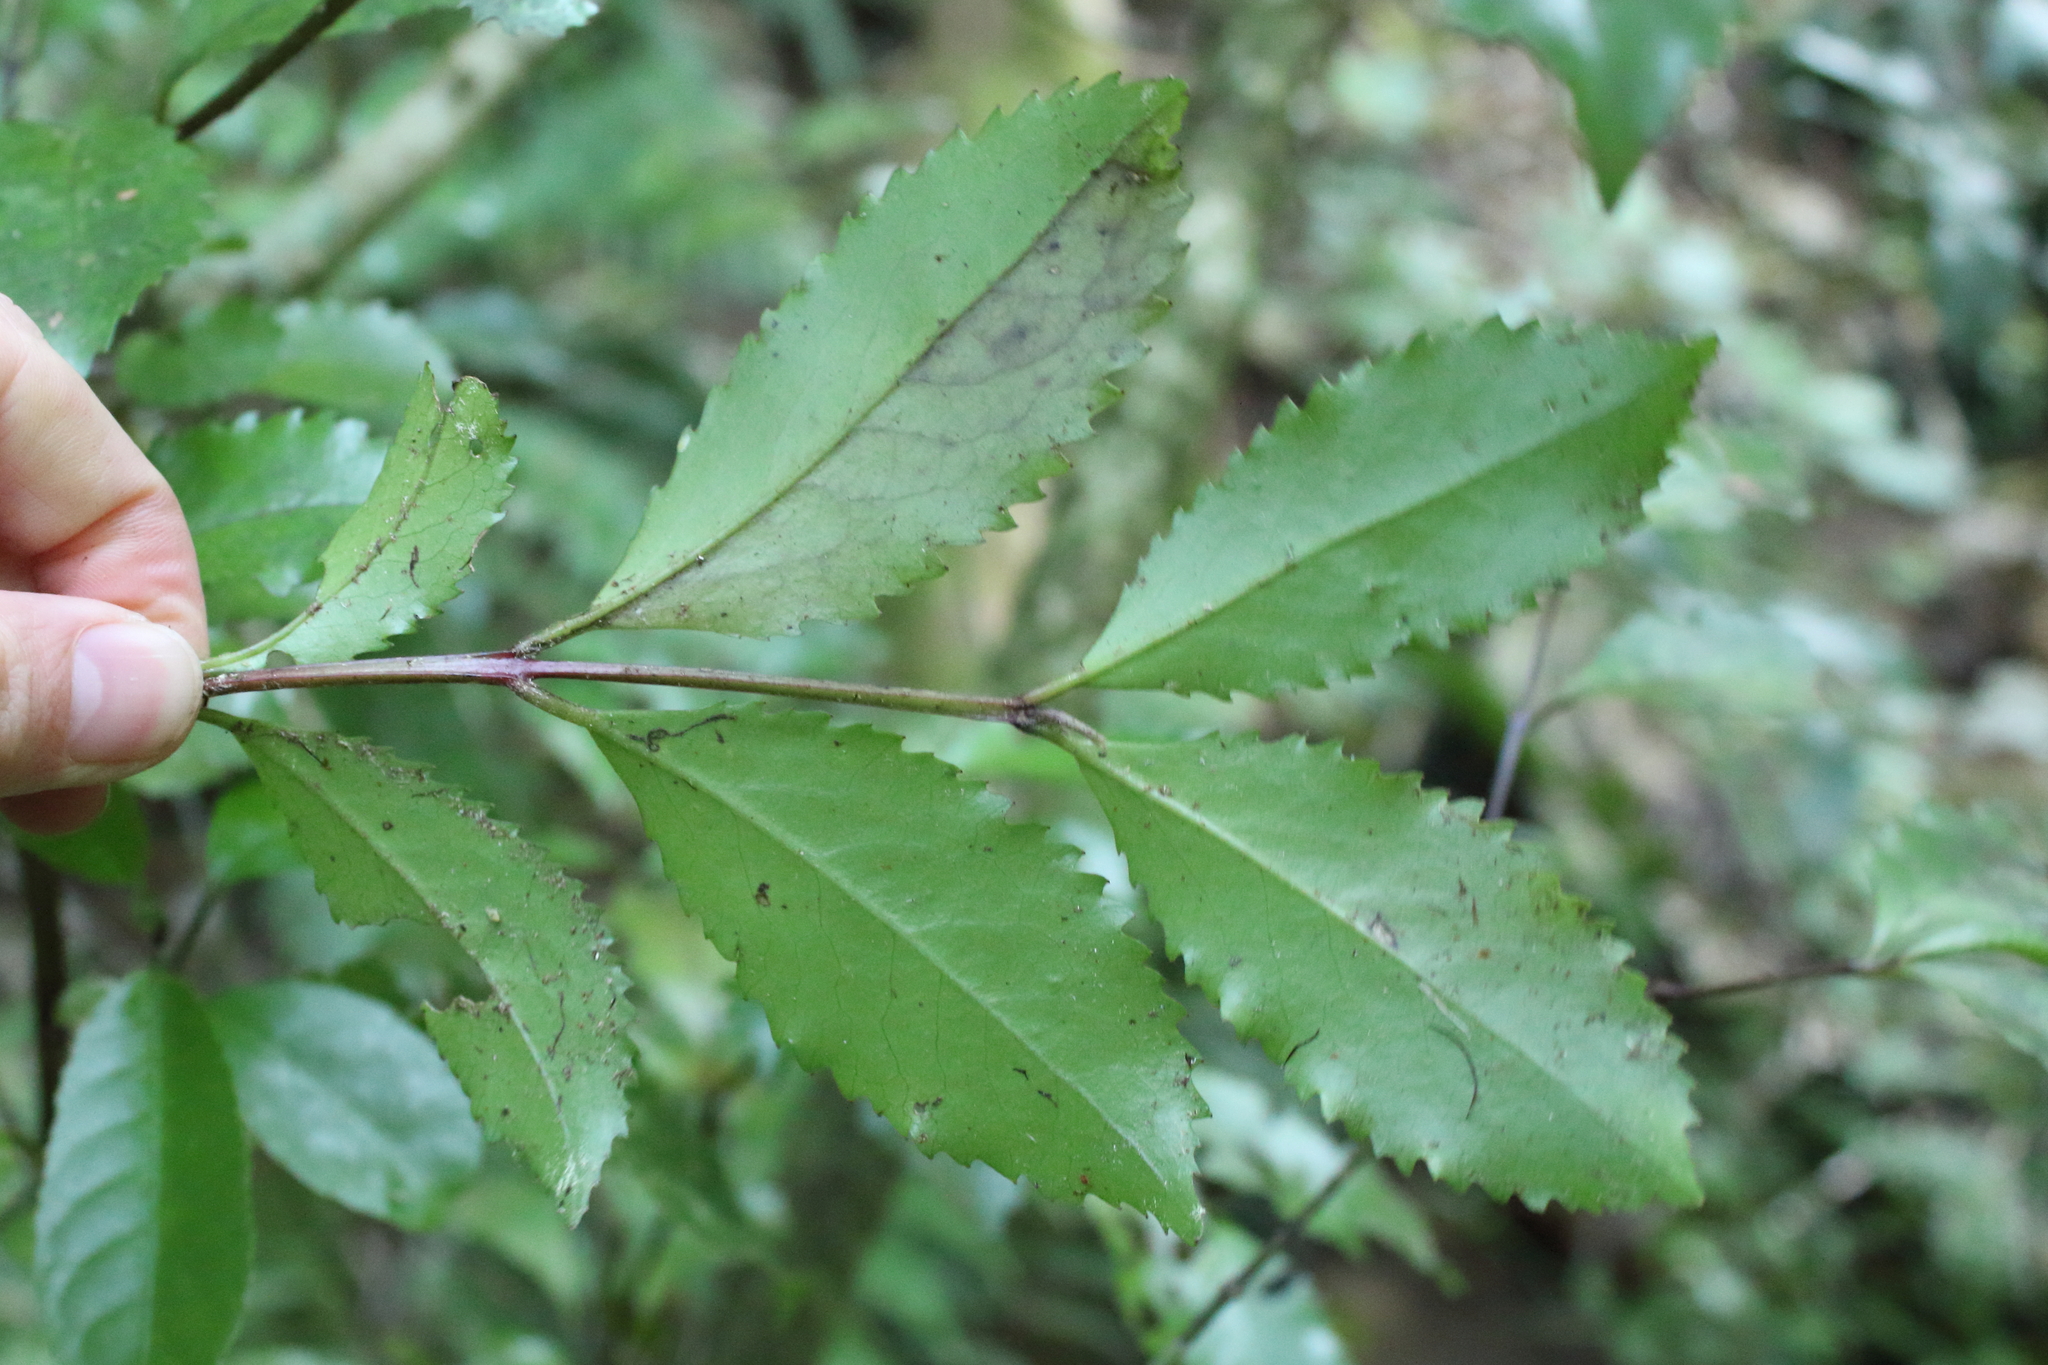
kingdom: Plantae
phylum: Tracheophyta
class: Magnoliopsida
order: Laurales
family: Atherospermataceae
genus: Laurelia
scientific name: Laurelia novae-zelandiae
